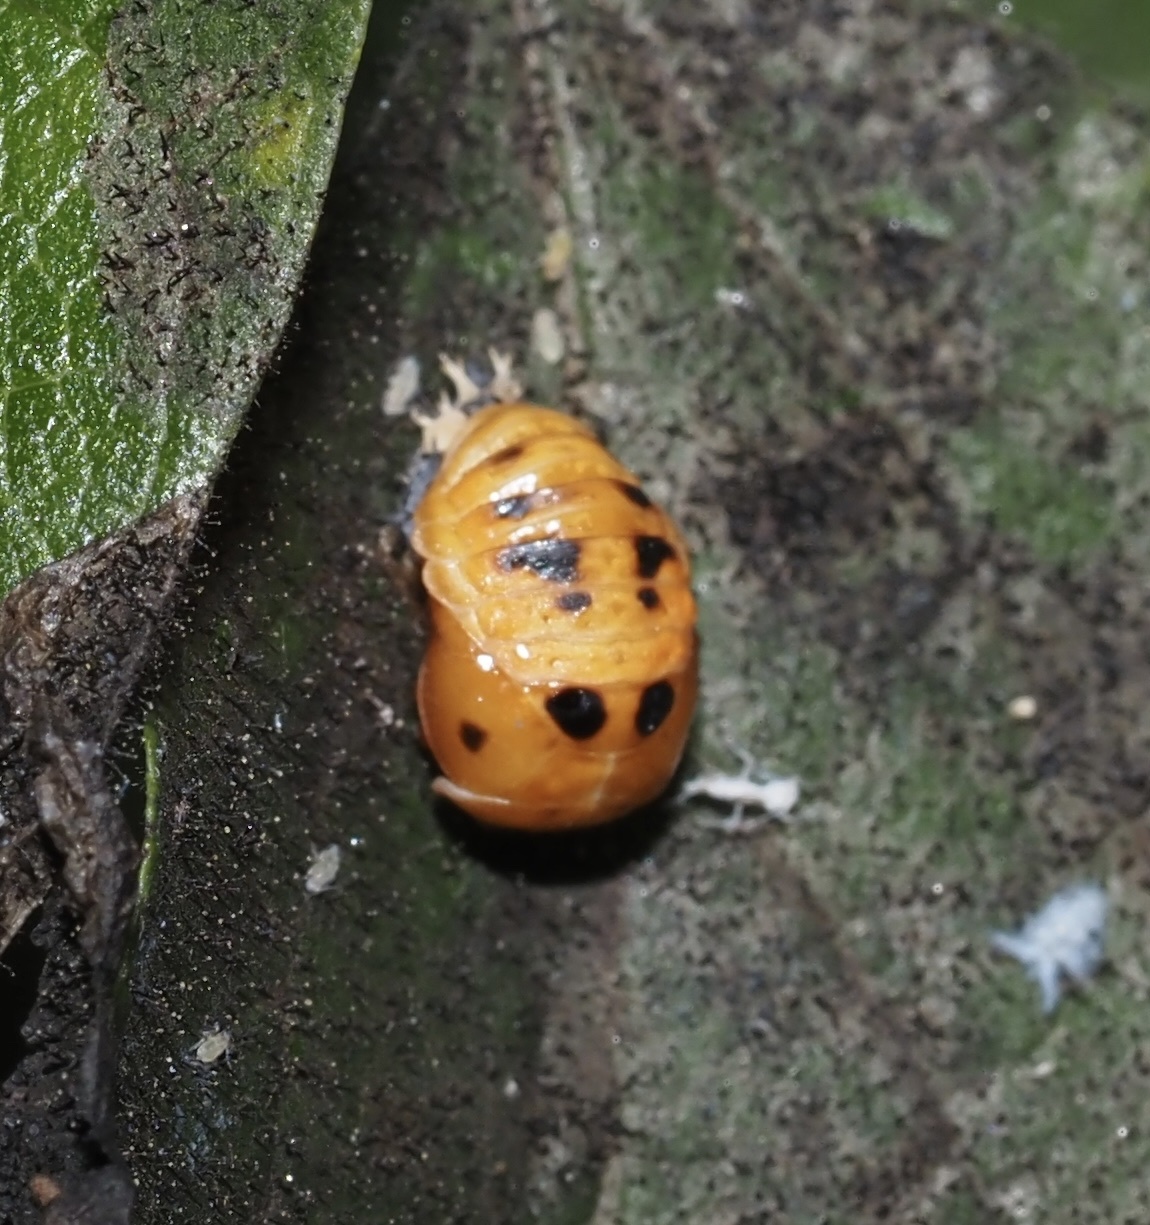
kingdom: Animalia
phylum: Arthropoda
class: Insecta
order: Coleoptera
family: Coccinellidae
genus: Harmonia
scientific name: Harmonia axyridis
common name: Harlequin ladybird
